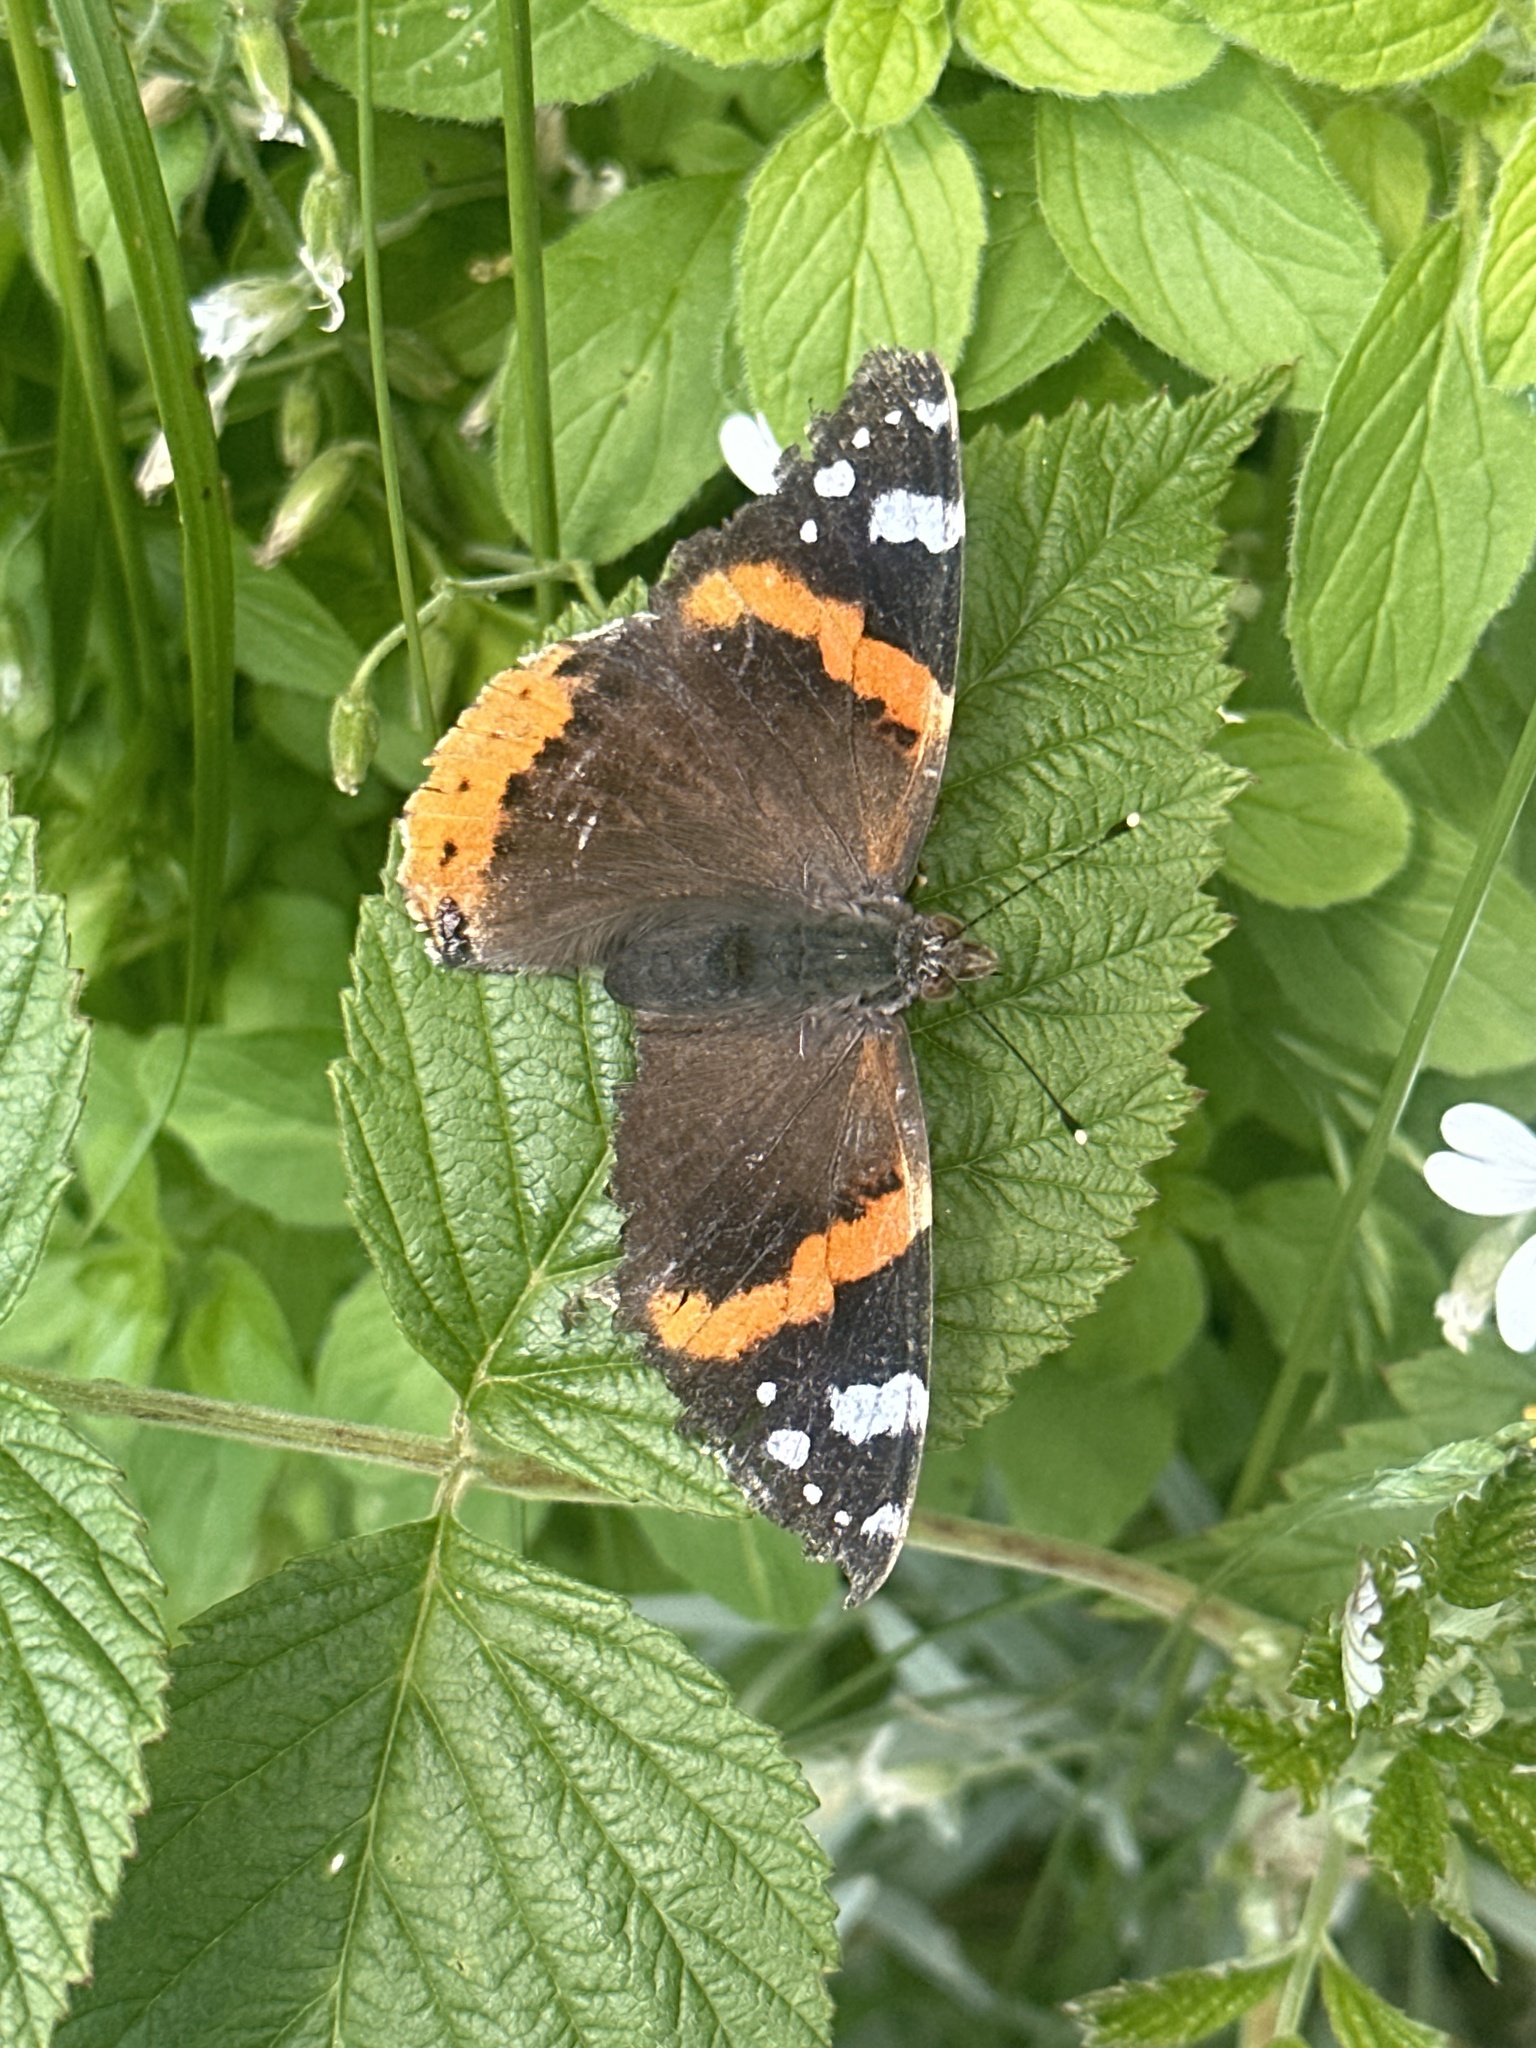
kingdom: Animalia
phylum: Arthropoda
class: Insecta
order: Lepidoptera
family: Nymphalidae
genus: Vanessa
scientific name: Vanessa atalanta
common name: Red admiral
